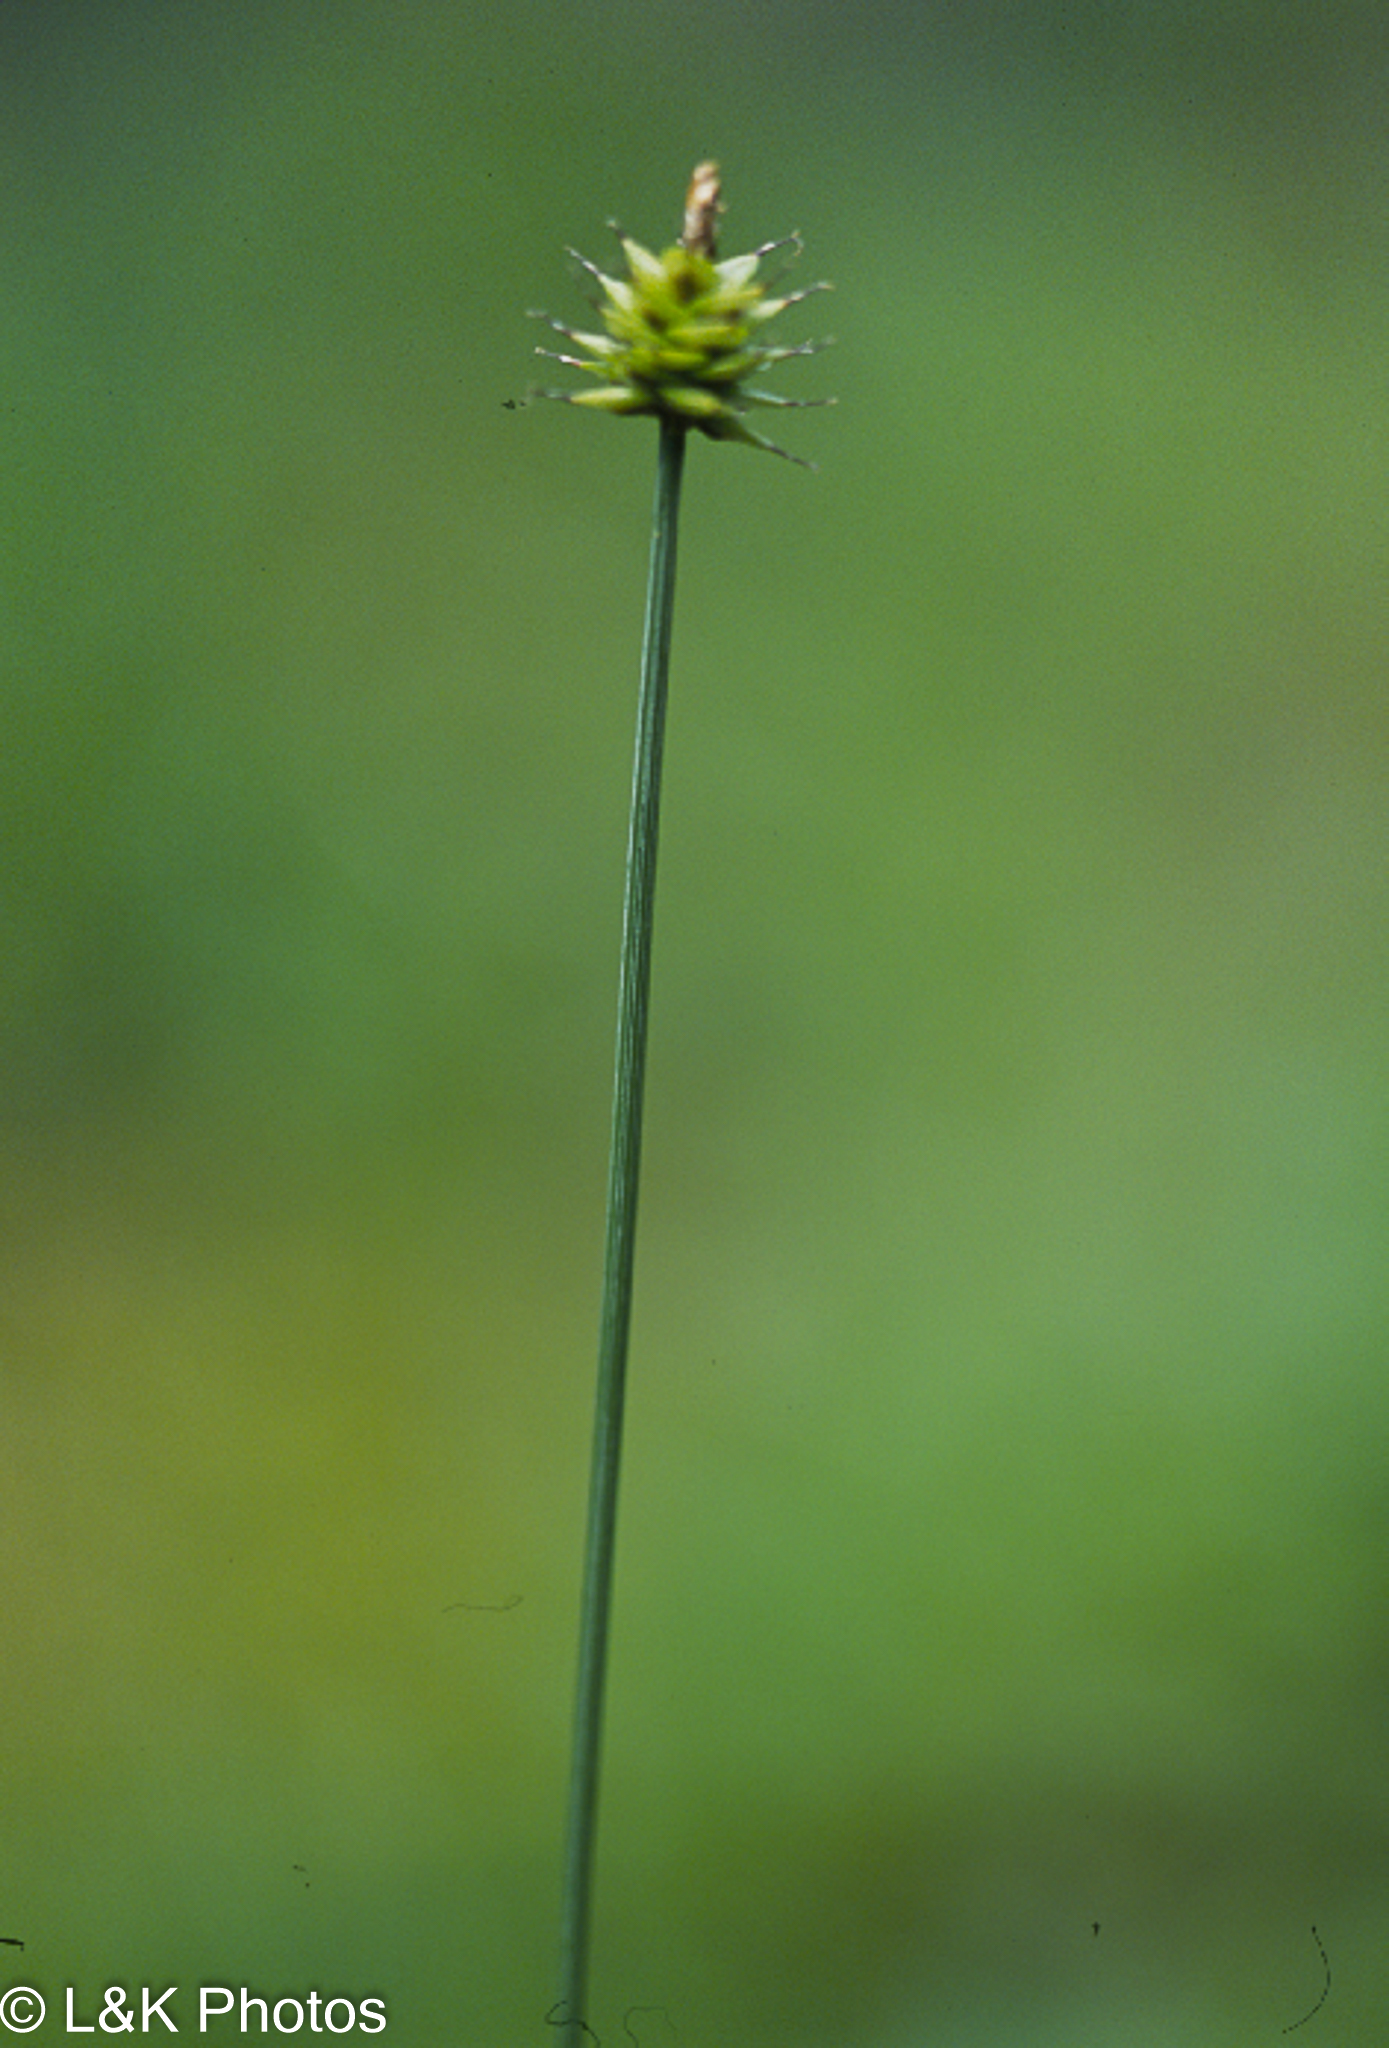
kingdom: Plantae
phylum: Tracheophyta
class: Liliopsida
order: Poales
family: Cyperaceae
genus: Carex
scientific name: Carex capitata
